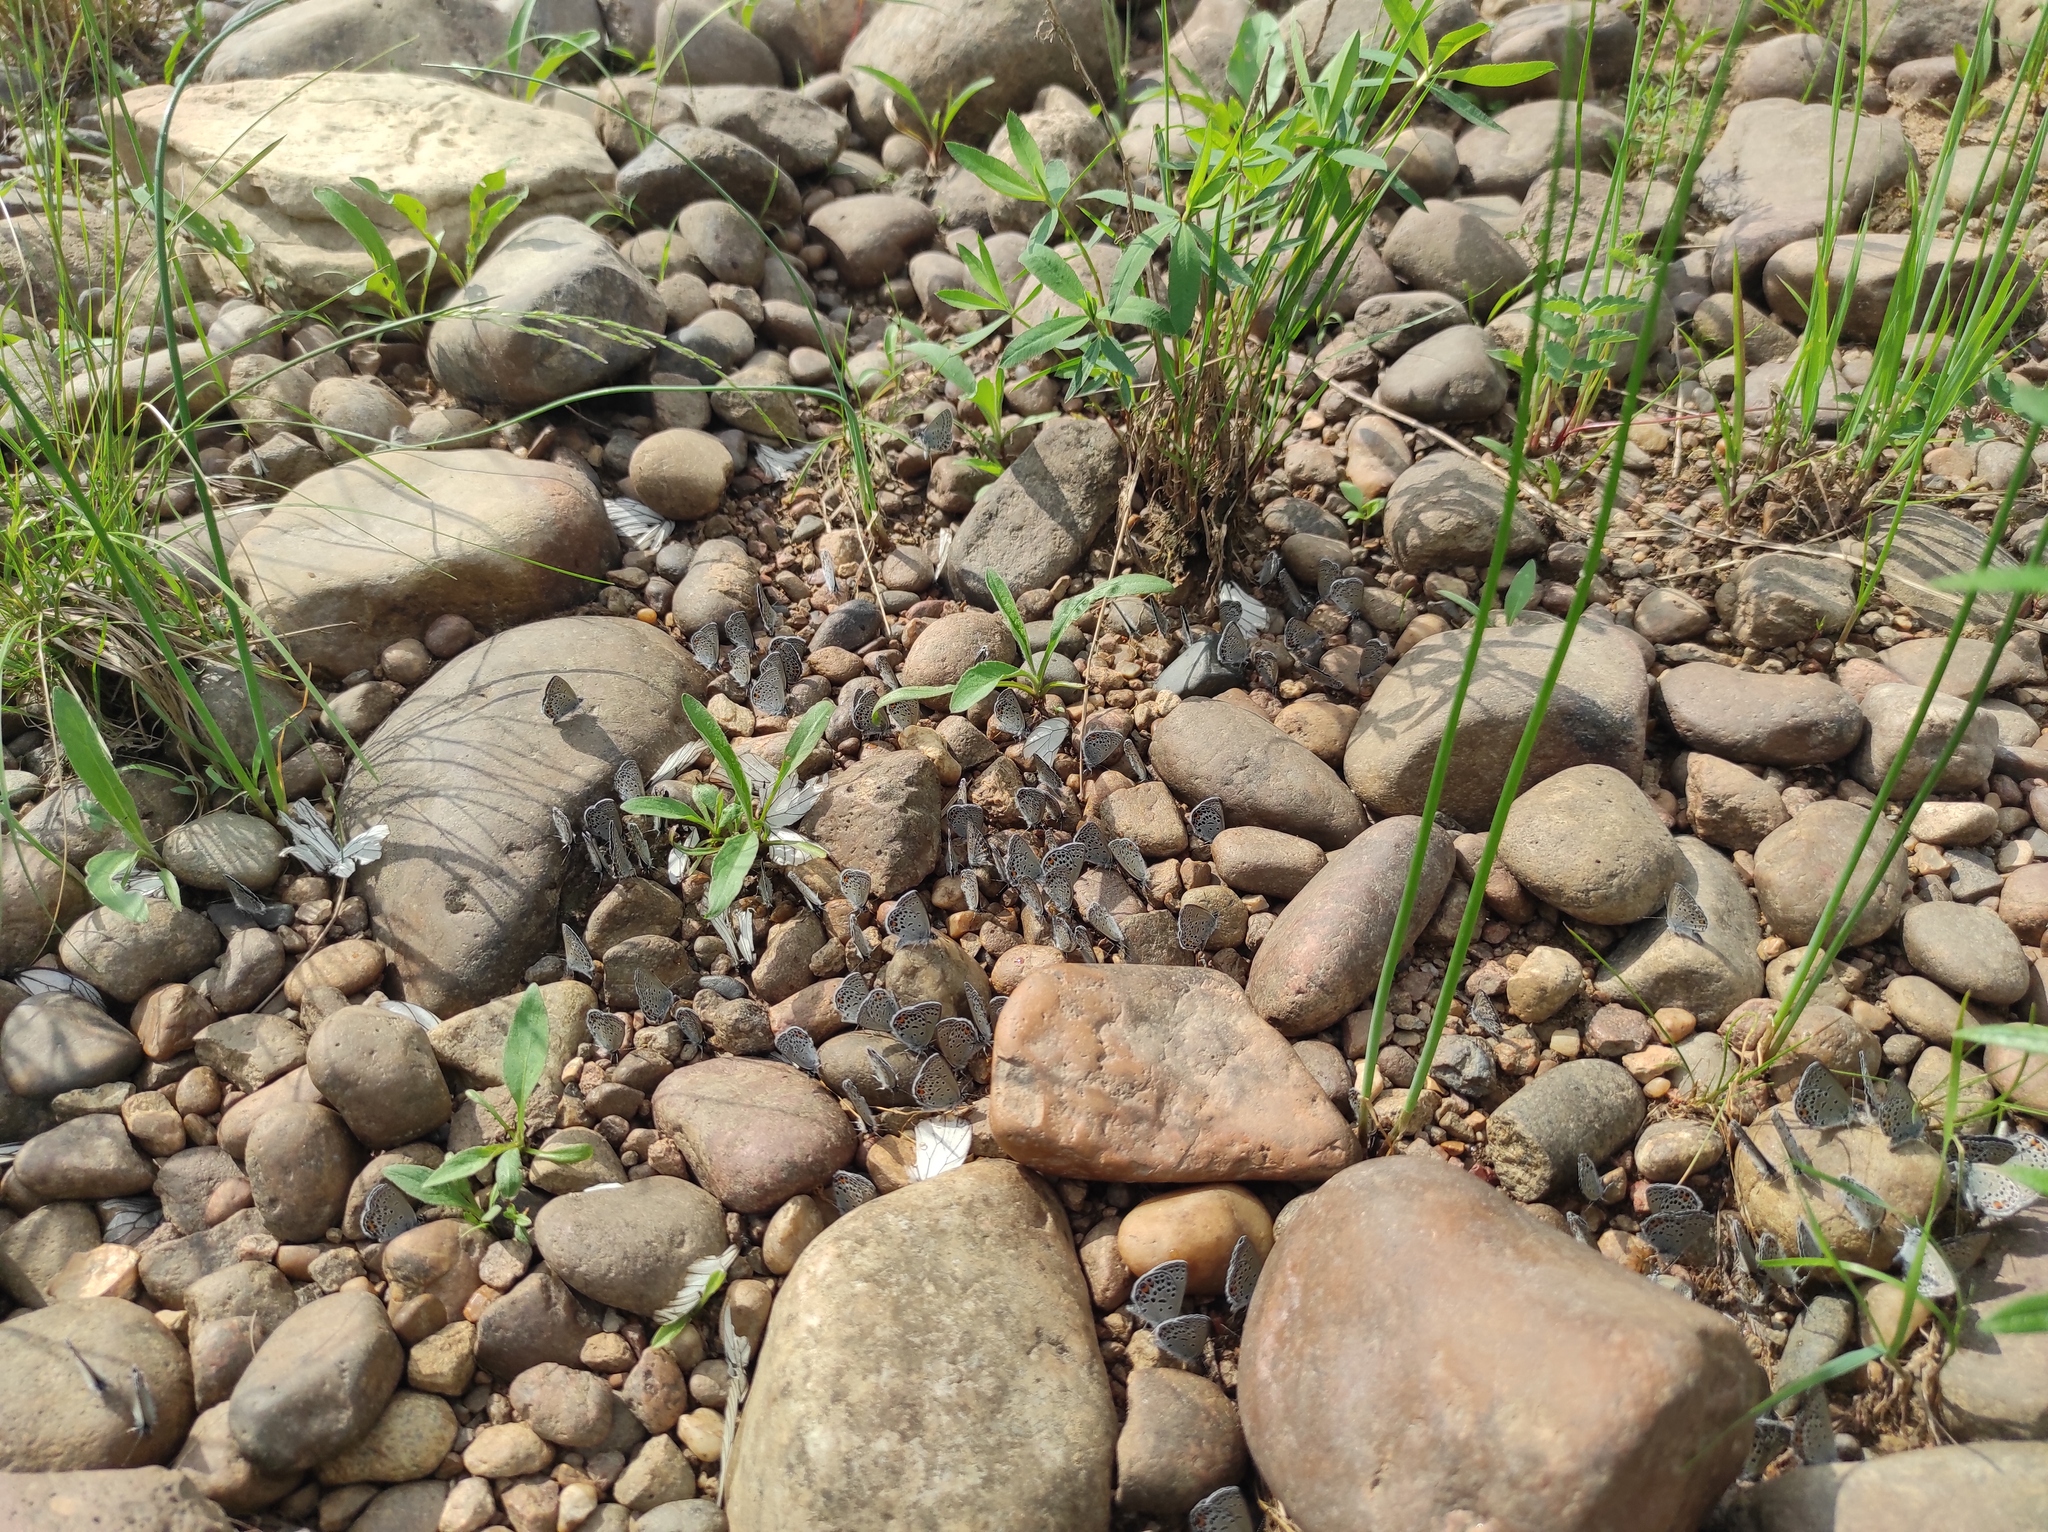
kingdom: Animalia
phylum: Arthropoda
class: Insecta
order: Lepidoptera
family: Lycaenidae
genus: Vacciniina
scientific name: Vacciniina optilete
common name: Cranberry blue
